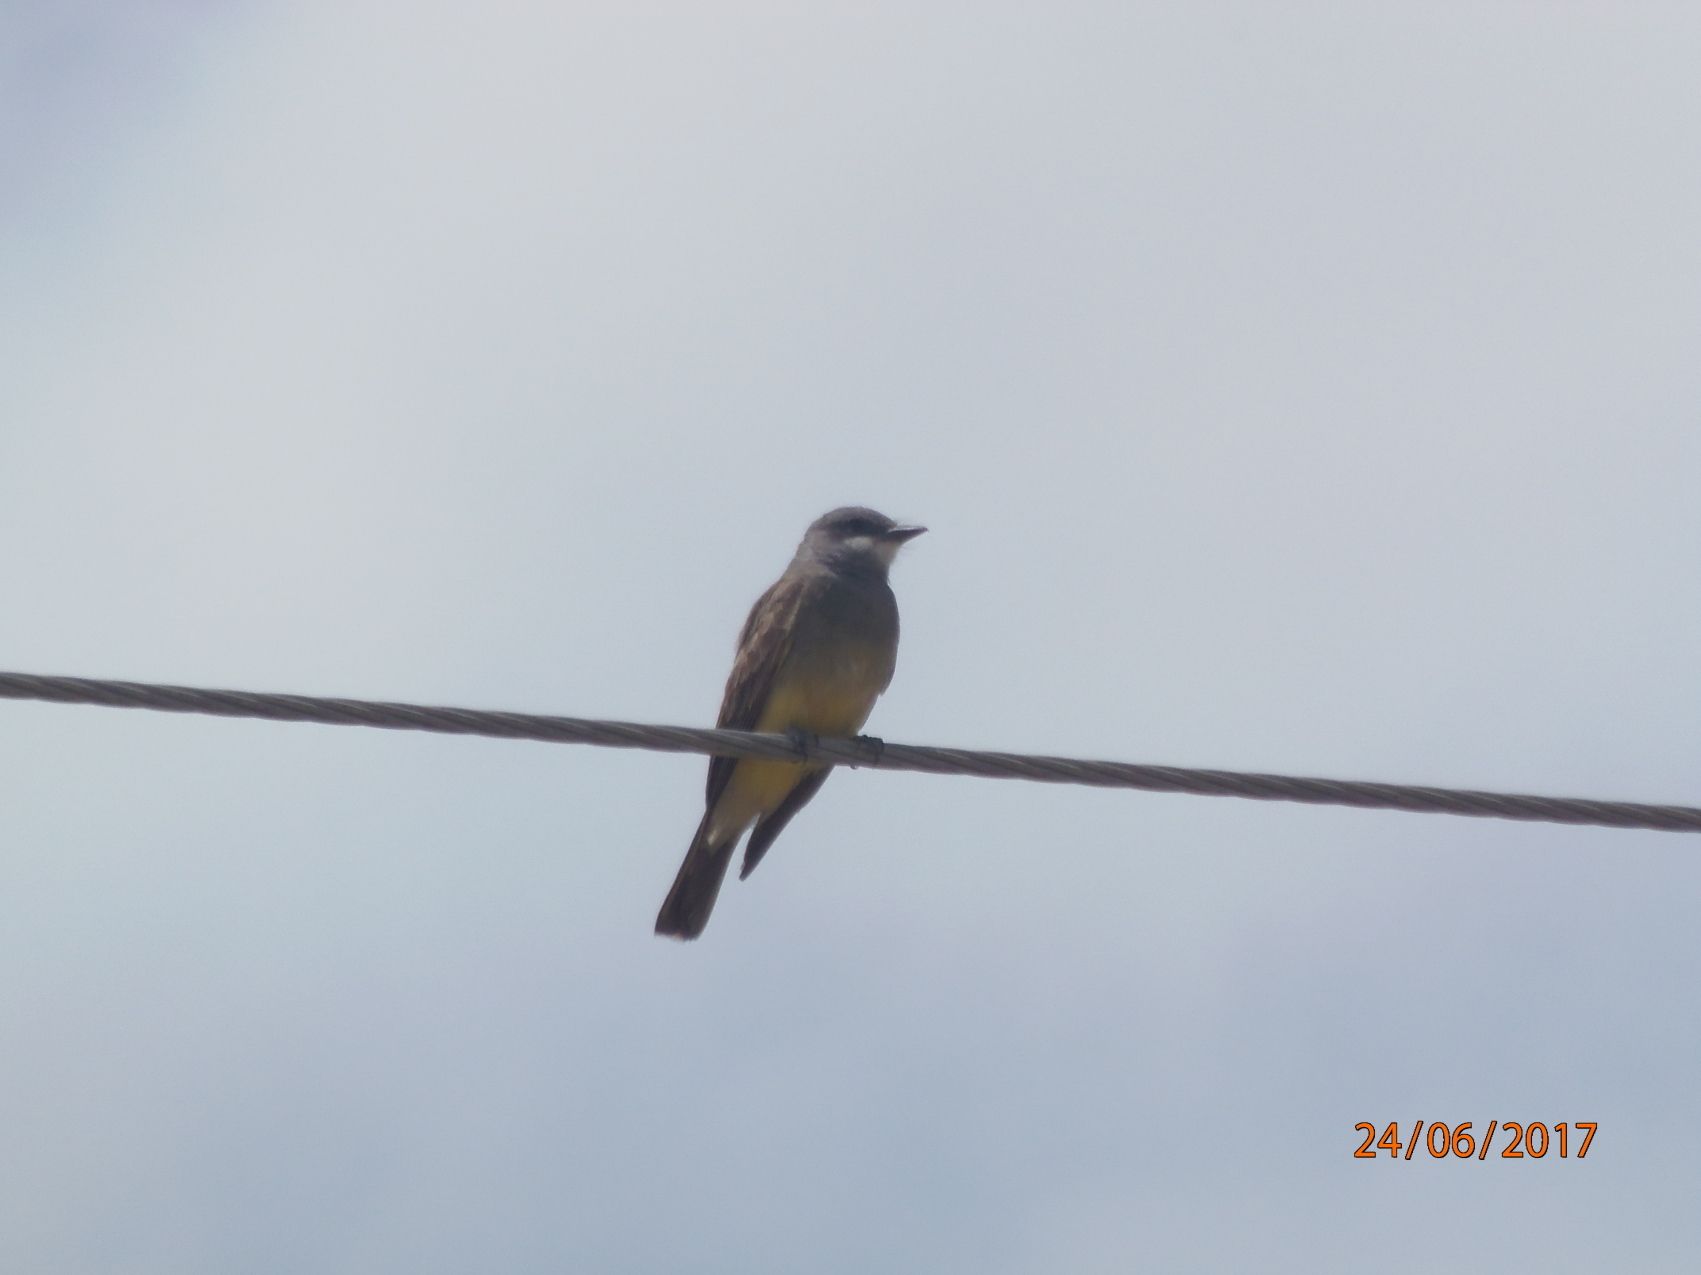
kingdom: Animalia
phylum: Chordata
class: Aves
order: Passeriformes
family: Tyrannidae
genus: Tyrannus
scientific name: Tyrannus vociferans
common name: Cassin's kingbird
